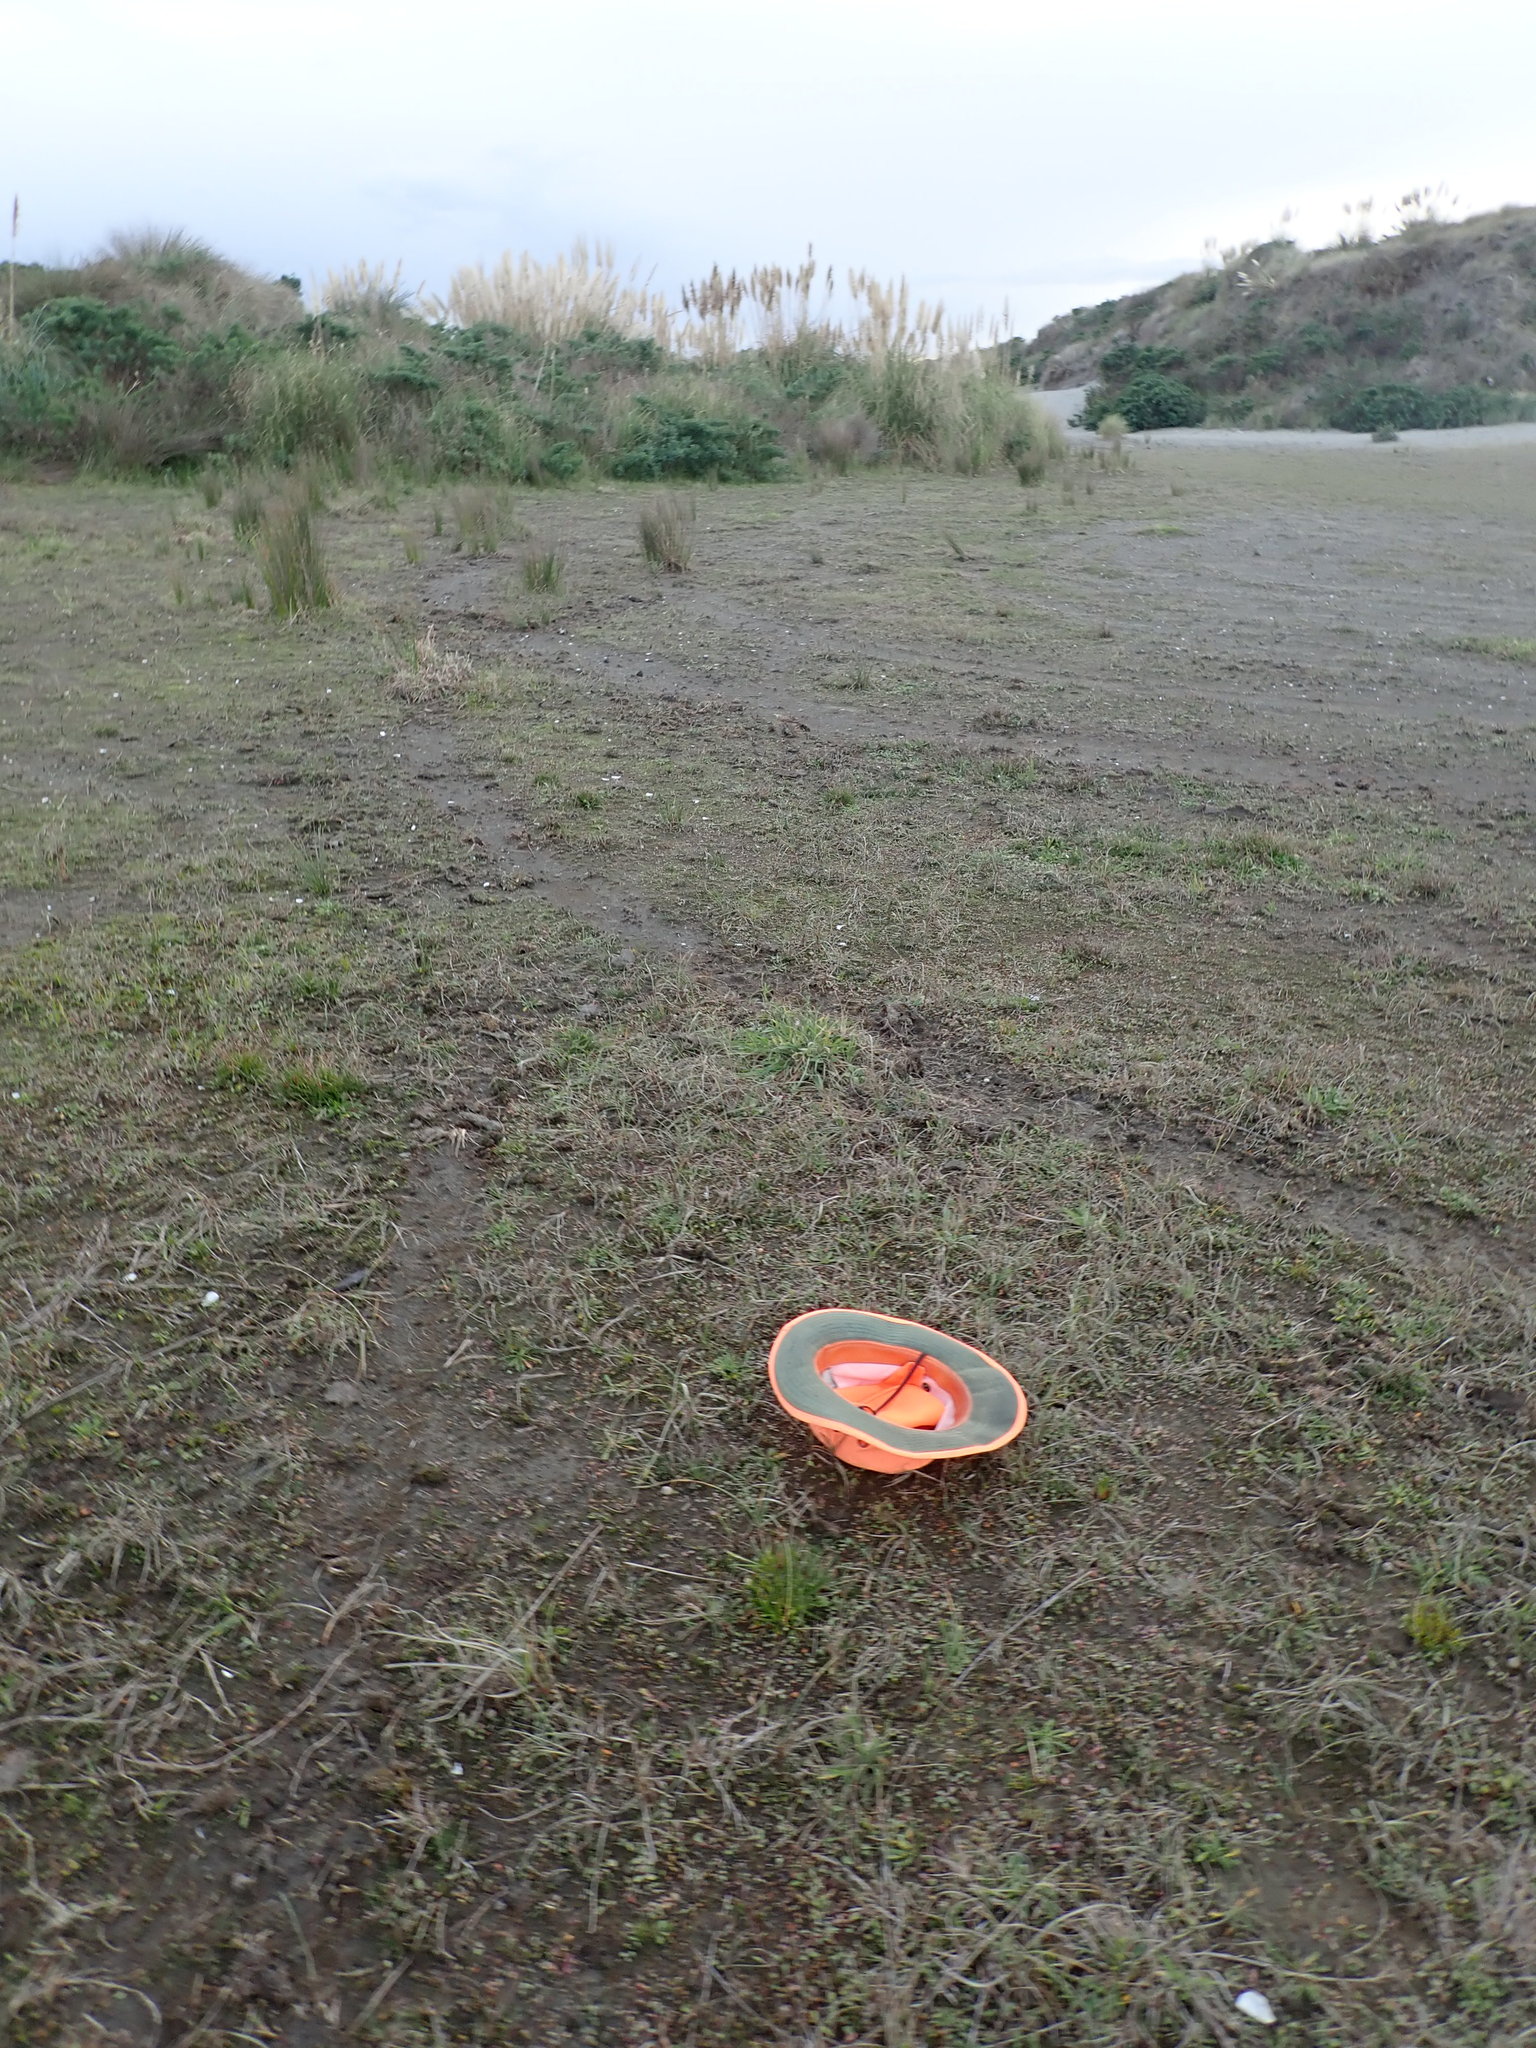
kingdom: Plantae
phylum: Tracheophyta
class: Liliopsida
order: Poales
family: Cyperaceae
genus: Carex
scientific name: Carex pumila
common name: Dwarf sedge
